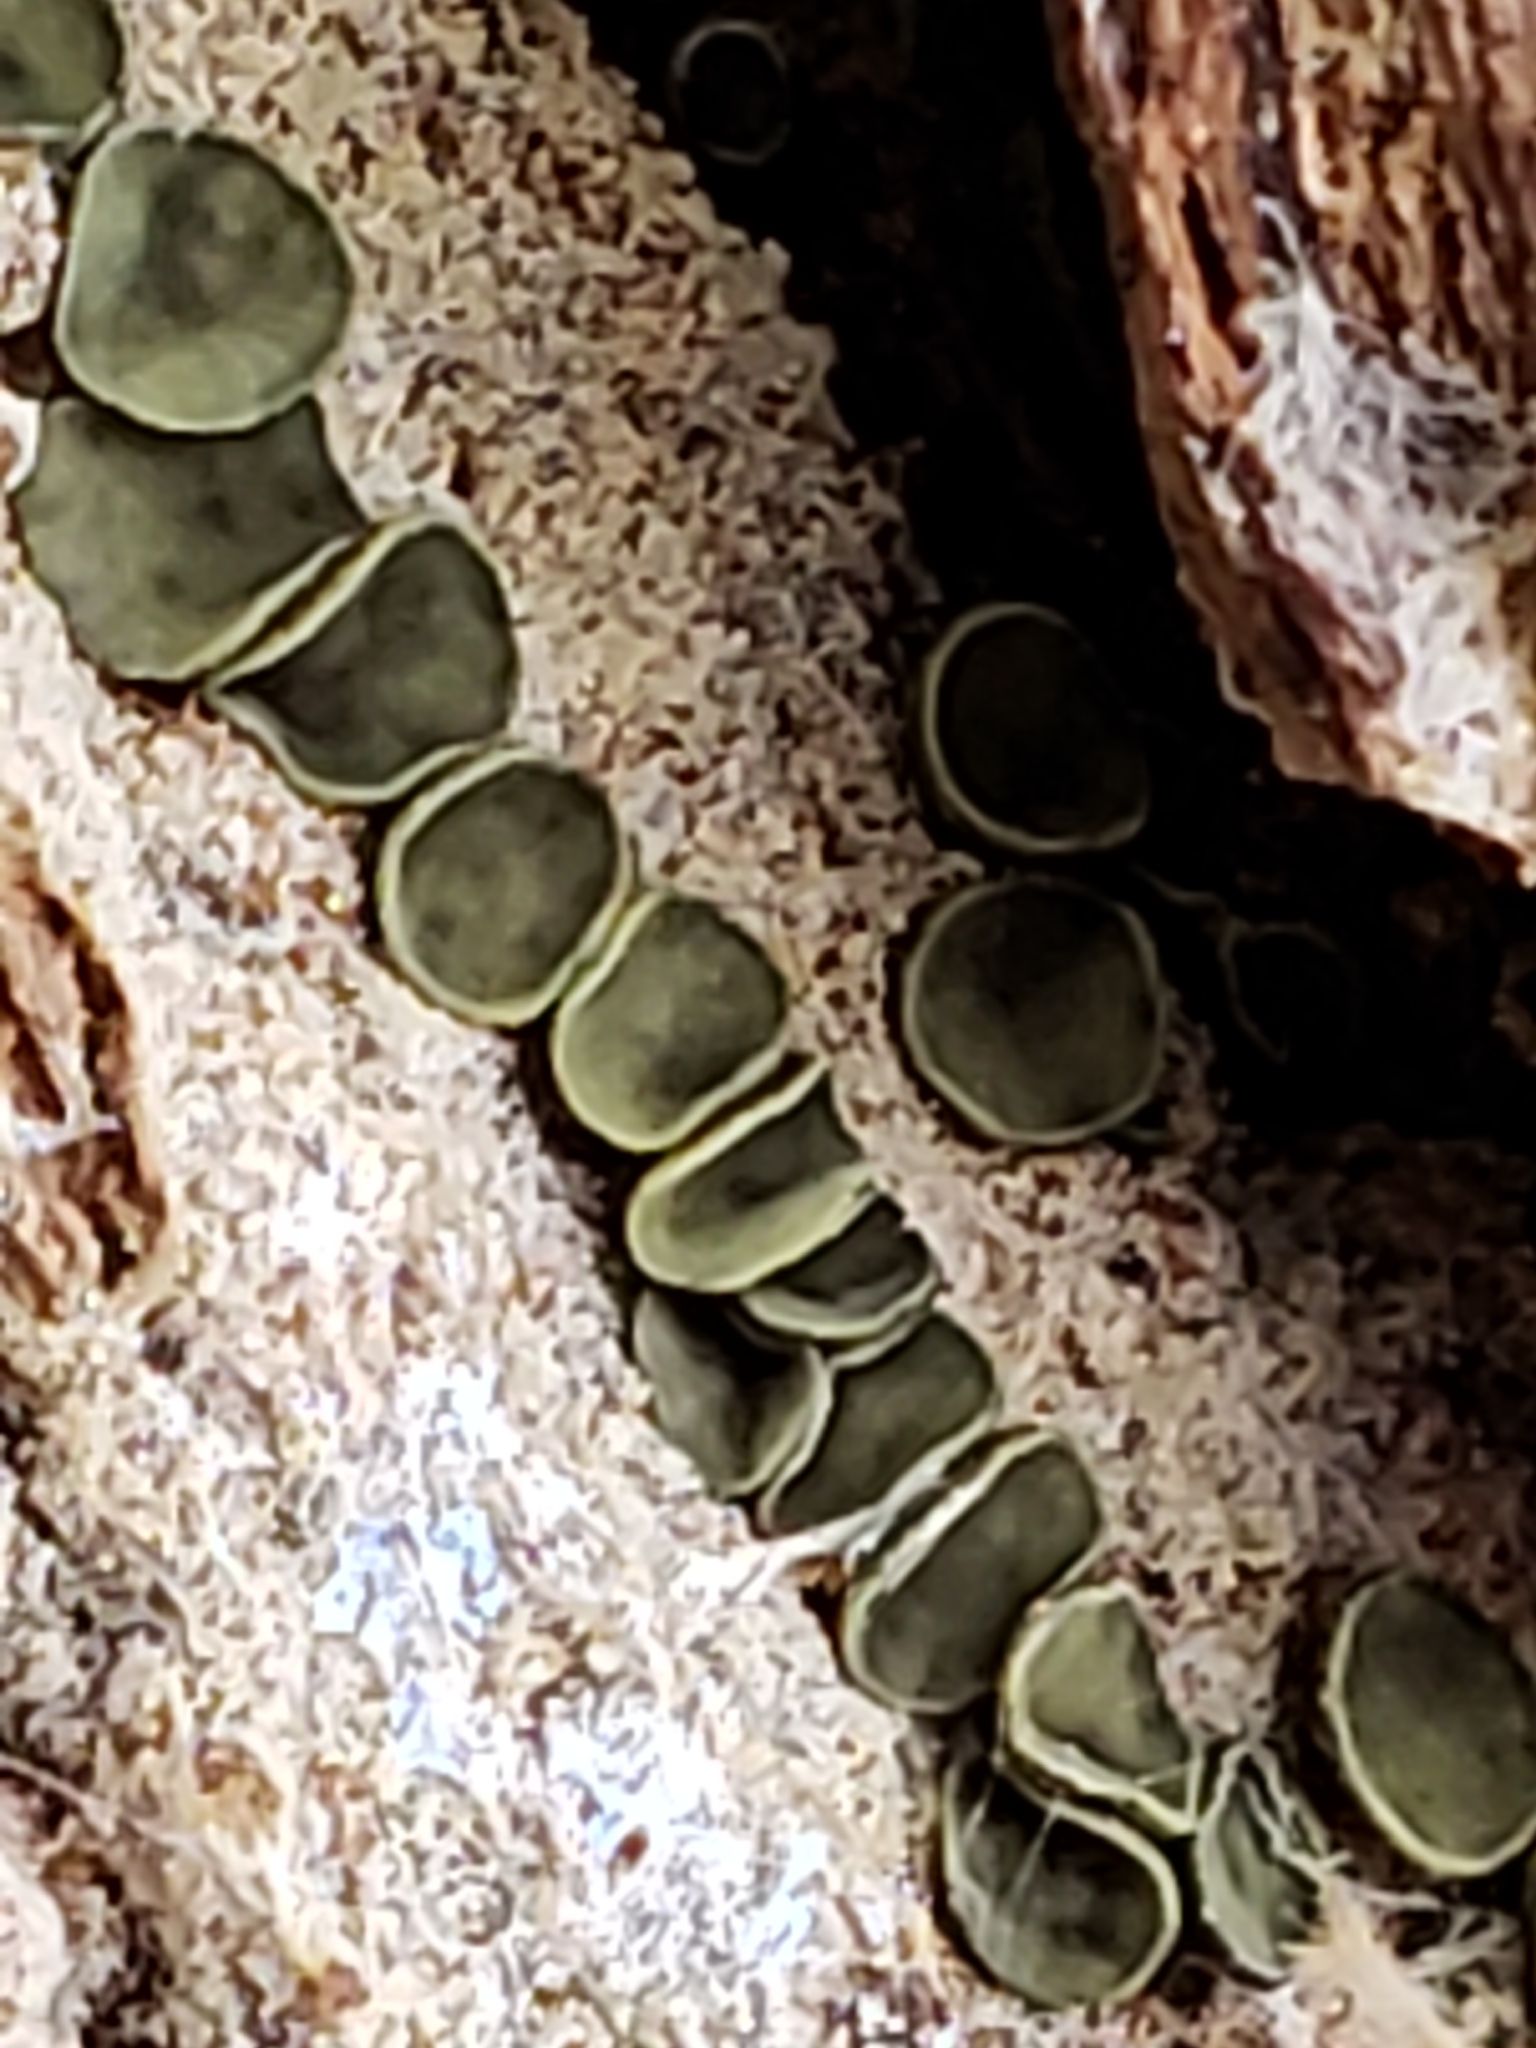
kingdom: Fungi
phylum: Ascomycota
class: Leotiomycetes
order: Helotiales
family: Chlorospleniaceae
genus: Chlorosplenium
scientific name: Chlorosplenium chlora
